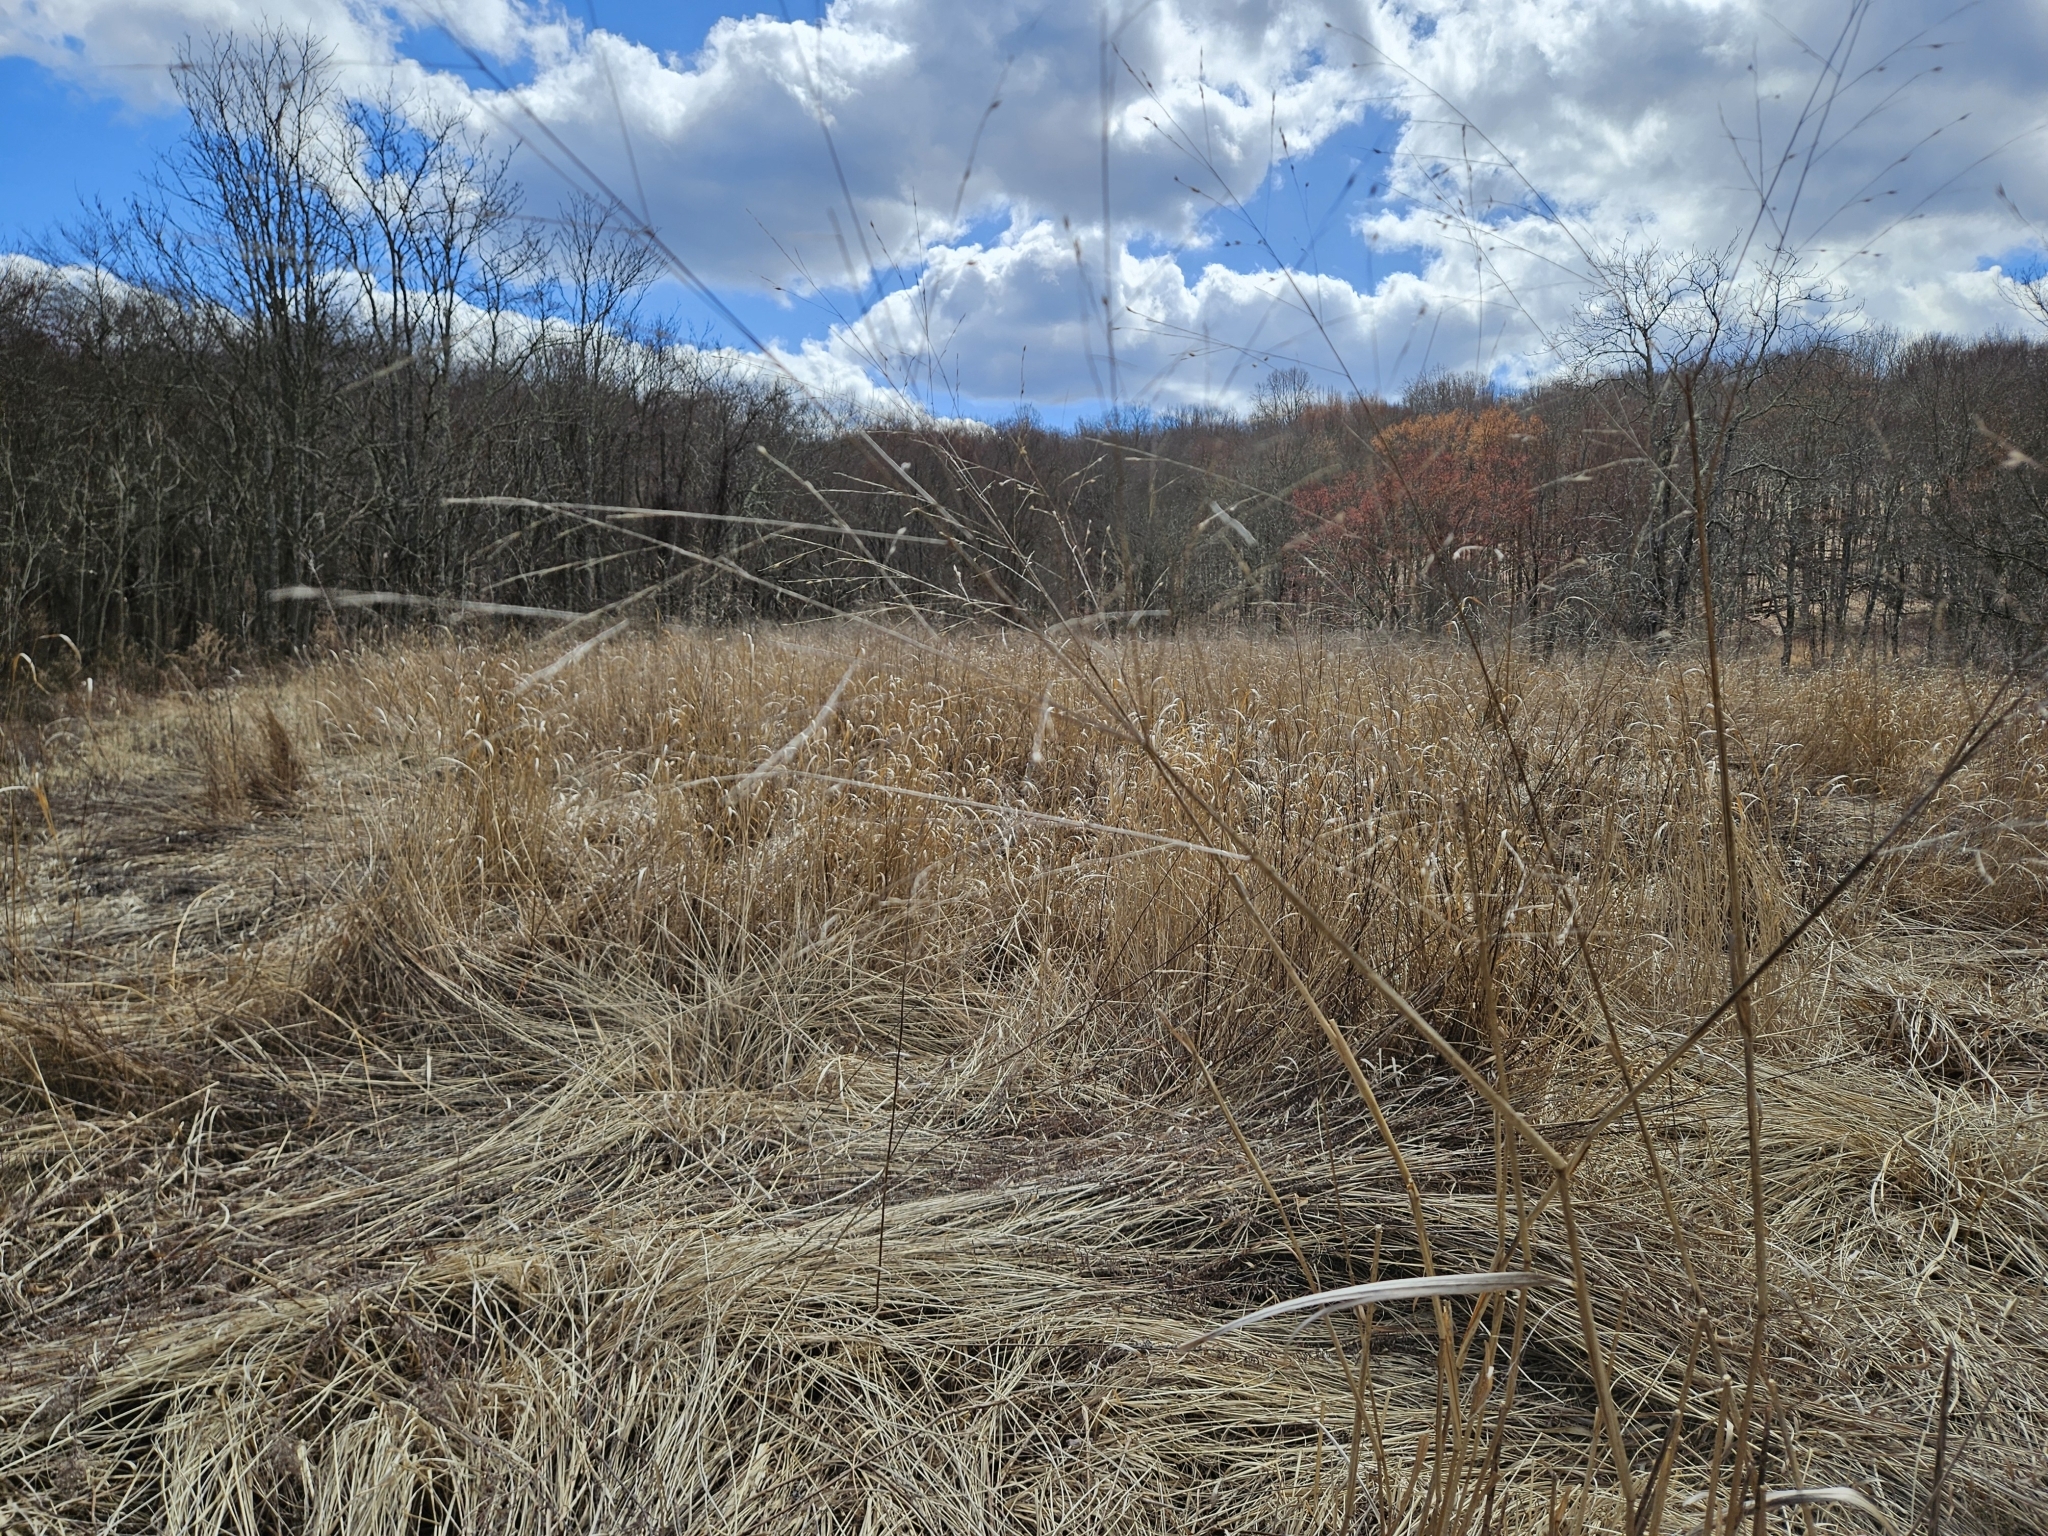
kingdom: Plantae
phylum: Tracheophyta
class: Liliopsida
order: Poales
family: Poaceae
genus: Panicum
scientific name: Panicum virgatum
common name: Switchgrass
